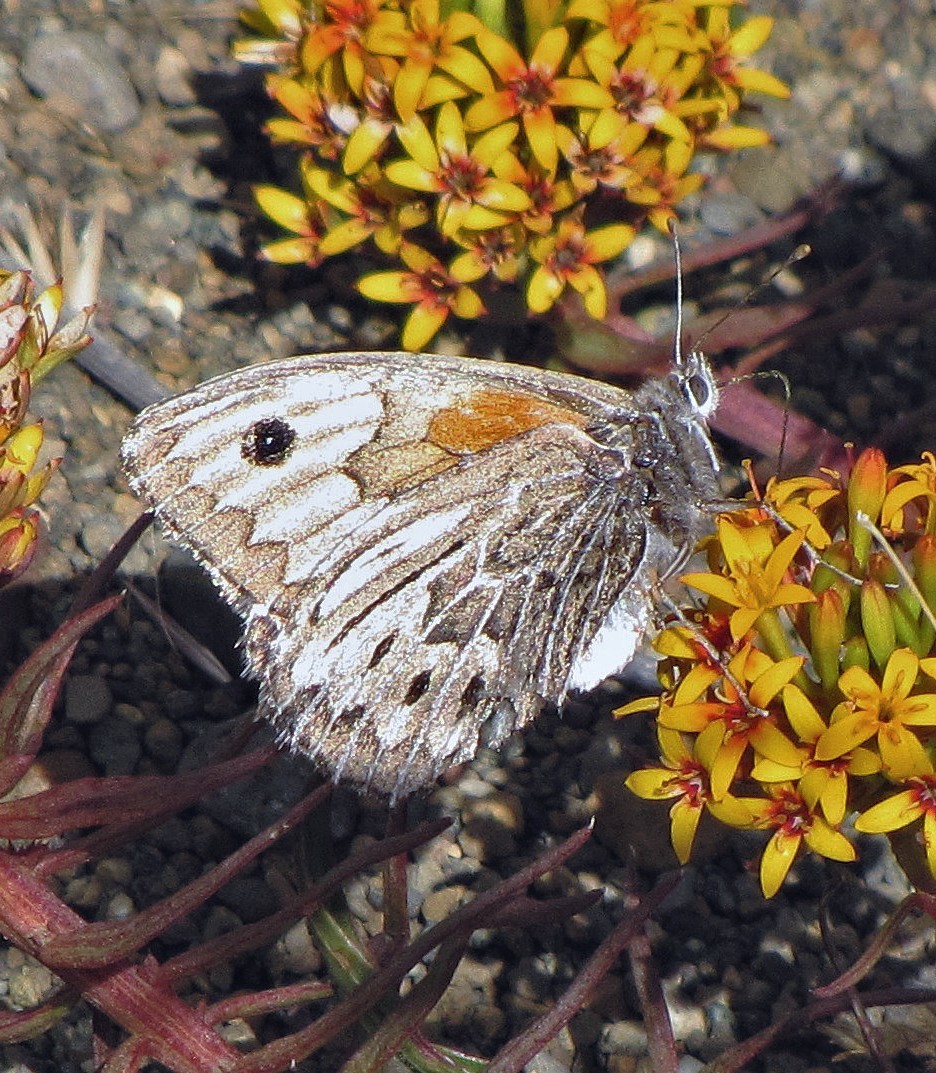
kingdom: Animalia
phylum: Arthropoda
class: Insecta
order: Lepidoptera
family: Nymphalidae
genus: Argyrophorus
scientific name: Argyrophorus argenteus
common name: Silver satyr
